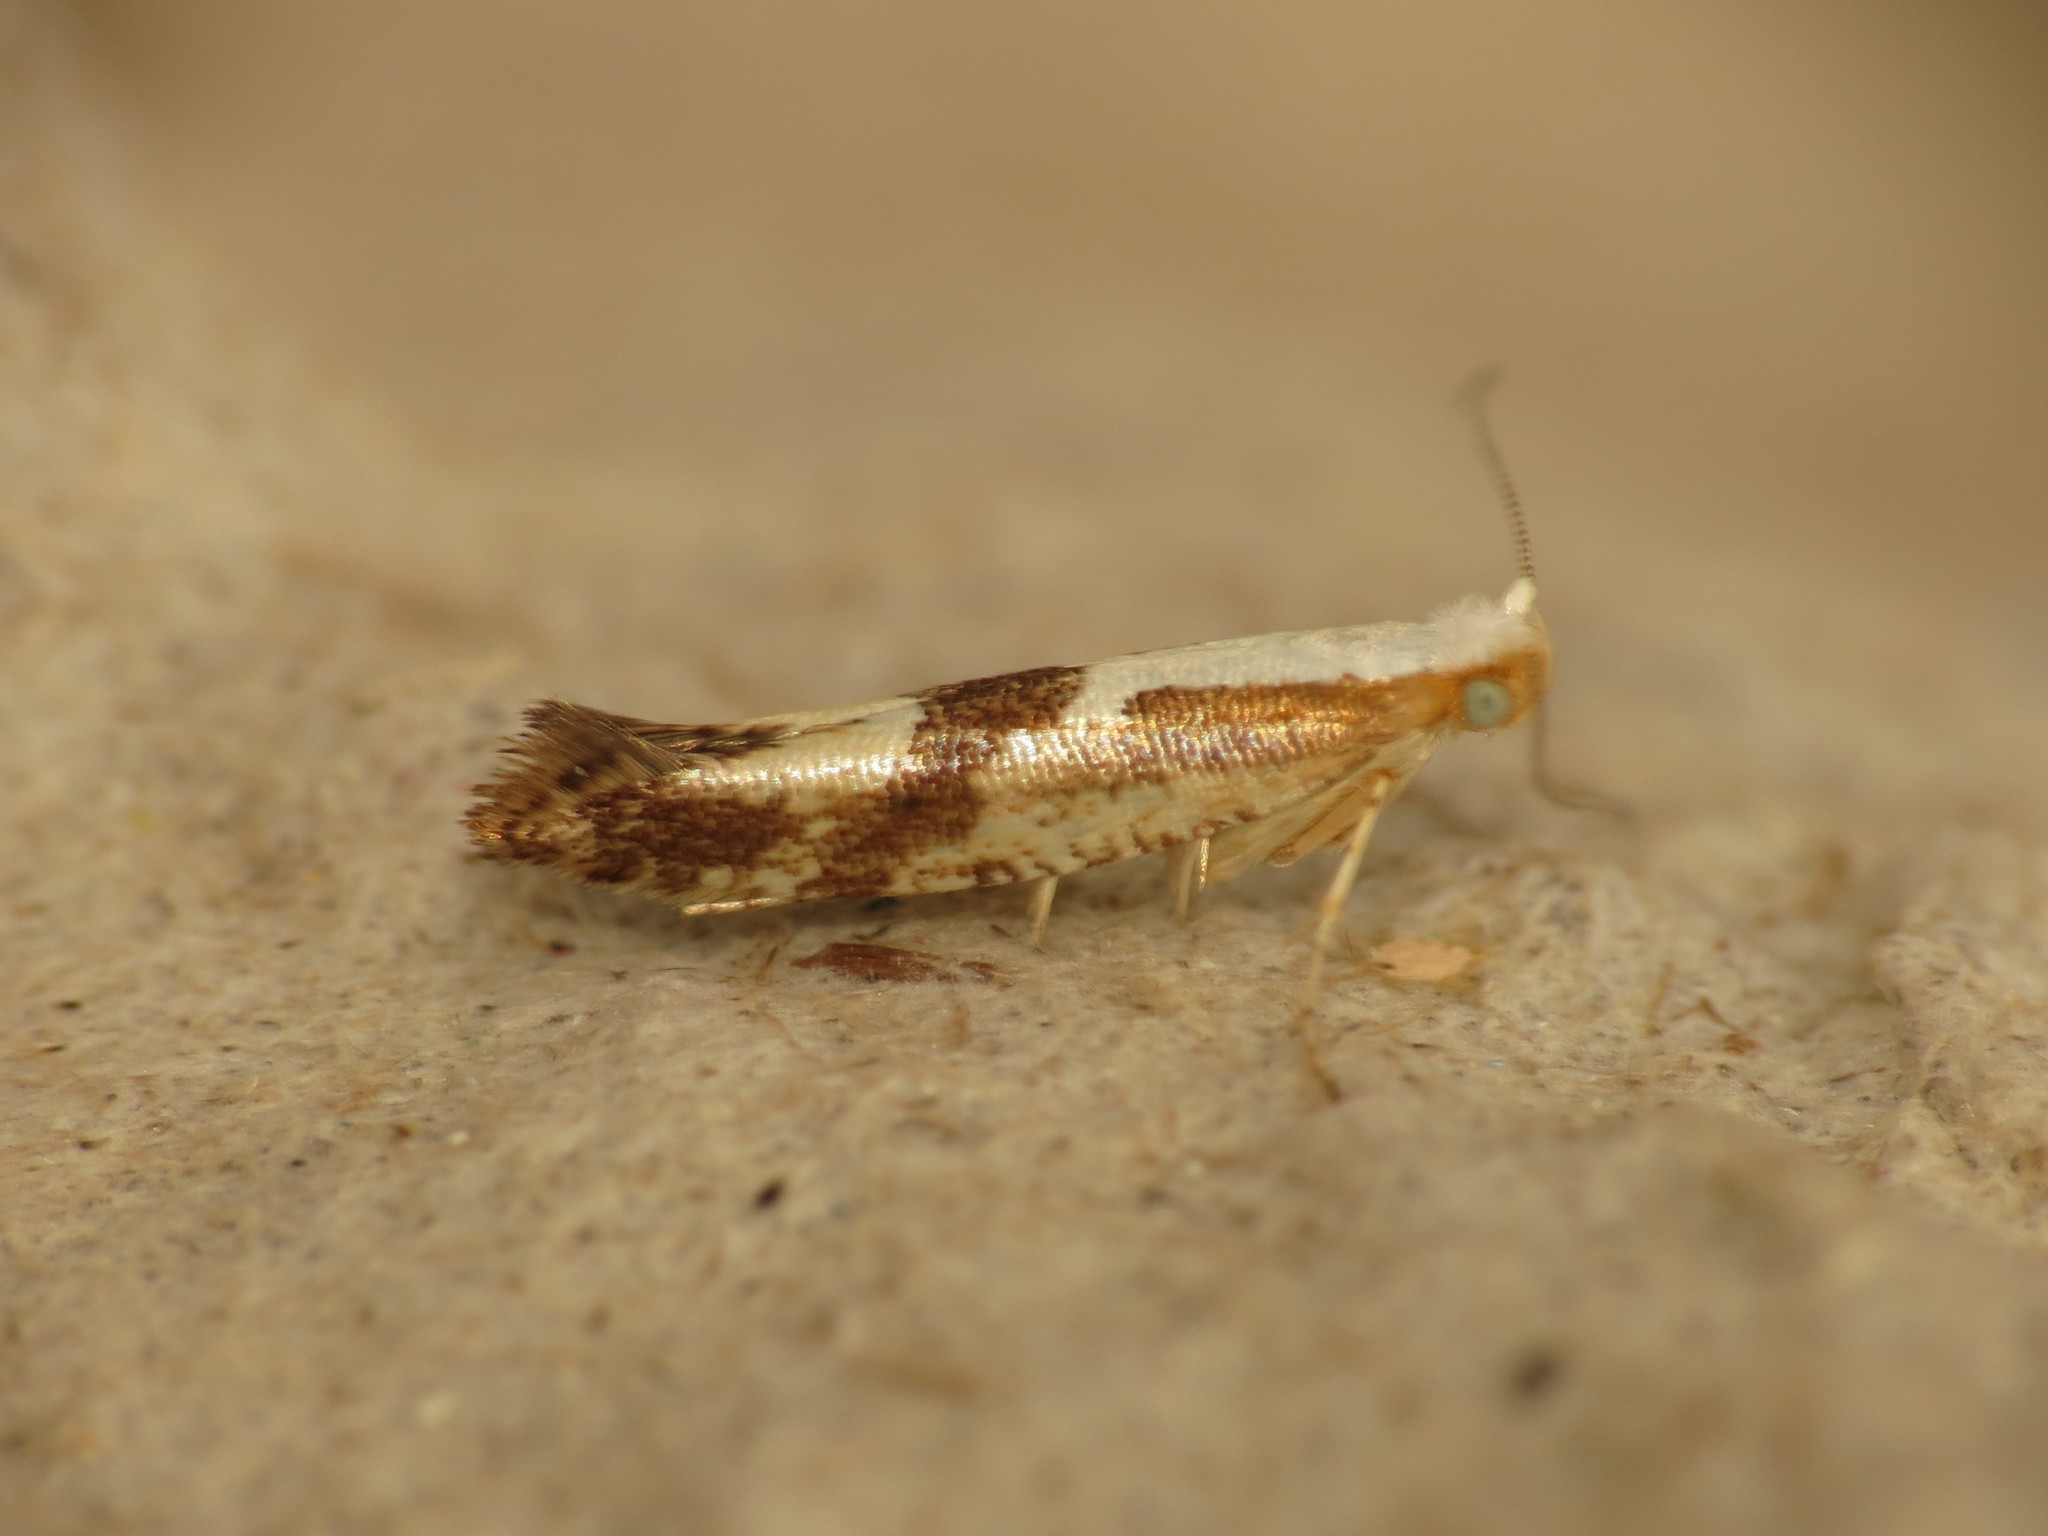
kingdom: Animalia
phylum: Arthropoda
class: Insecta
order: Lepidoptera
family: Argyresthiidae
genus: Argyresthia
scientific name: Argyresthia bonnetella
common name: Hawthorn argent
